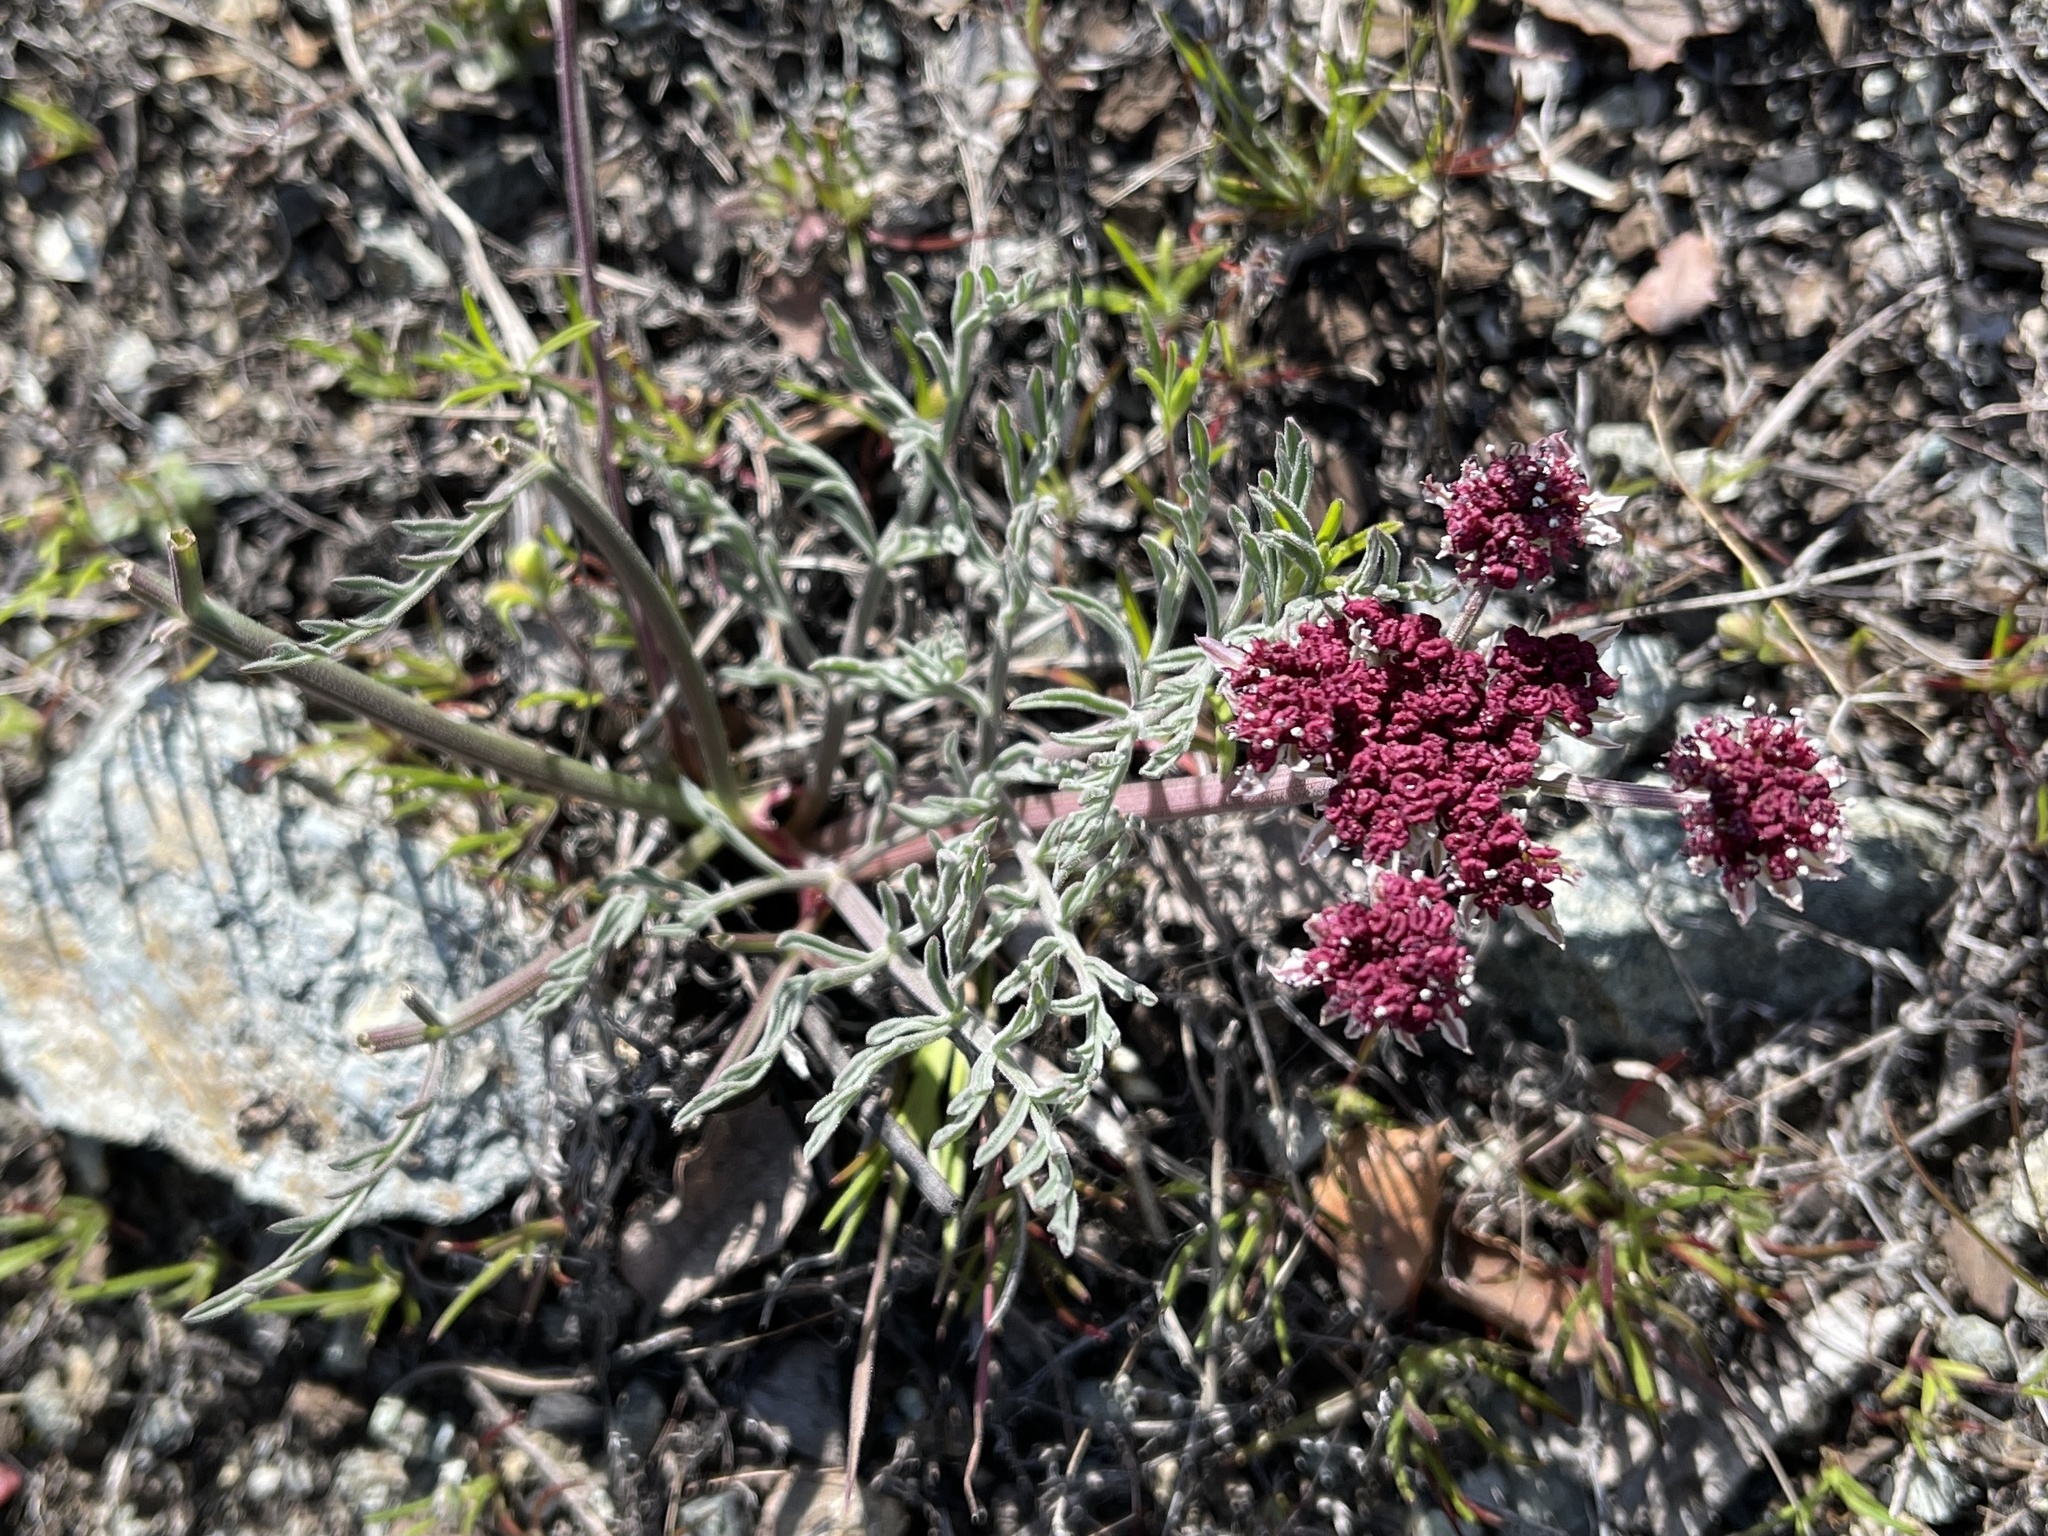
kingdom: Plantae
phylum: Tracheophyta
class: Magnoliopsida
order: Apiales
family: Apiaceae
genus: Lomatium
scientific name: Lomatium hooveri
